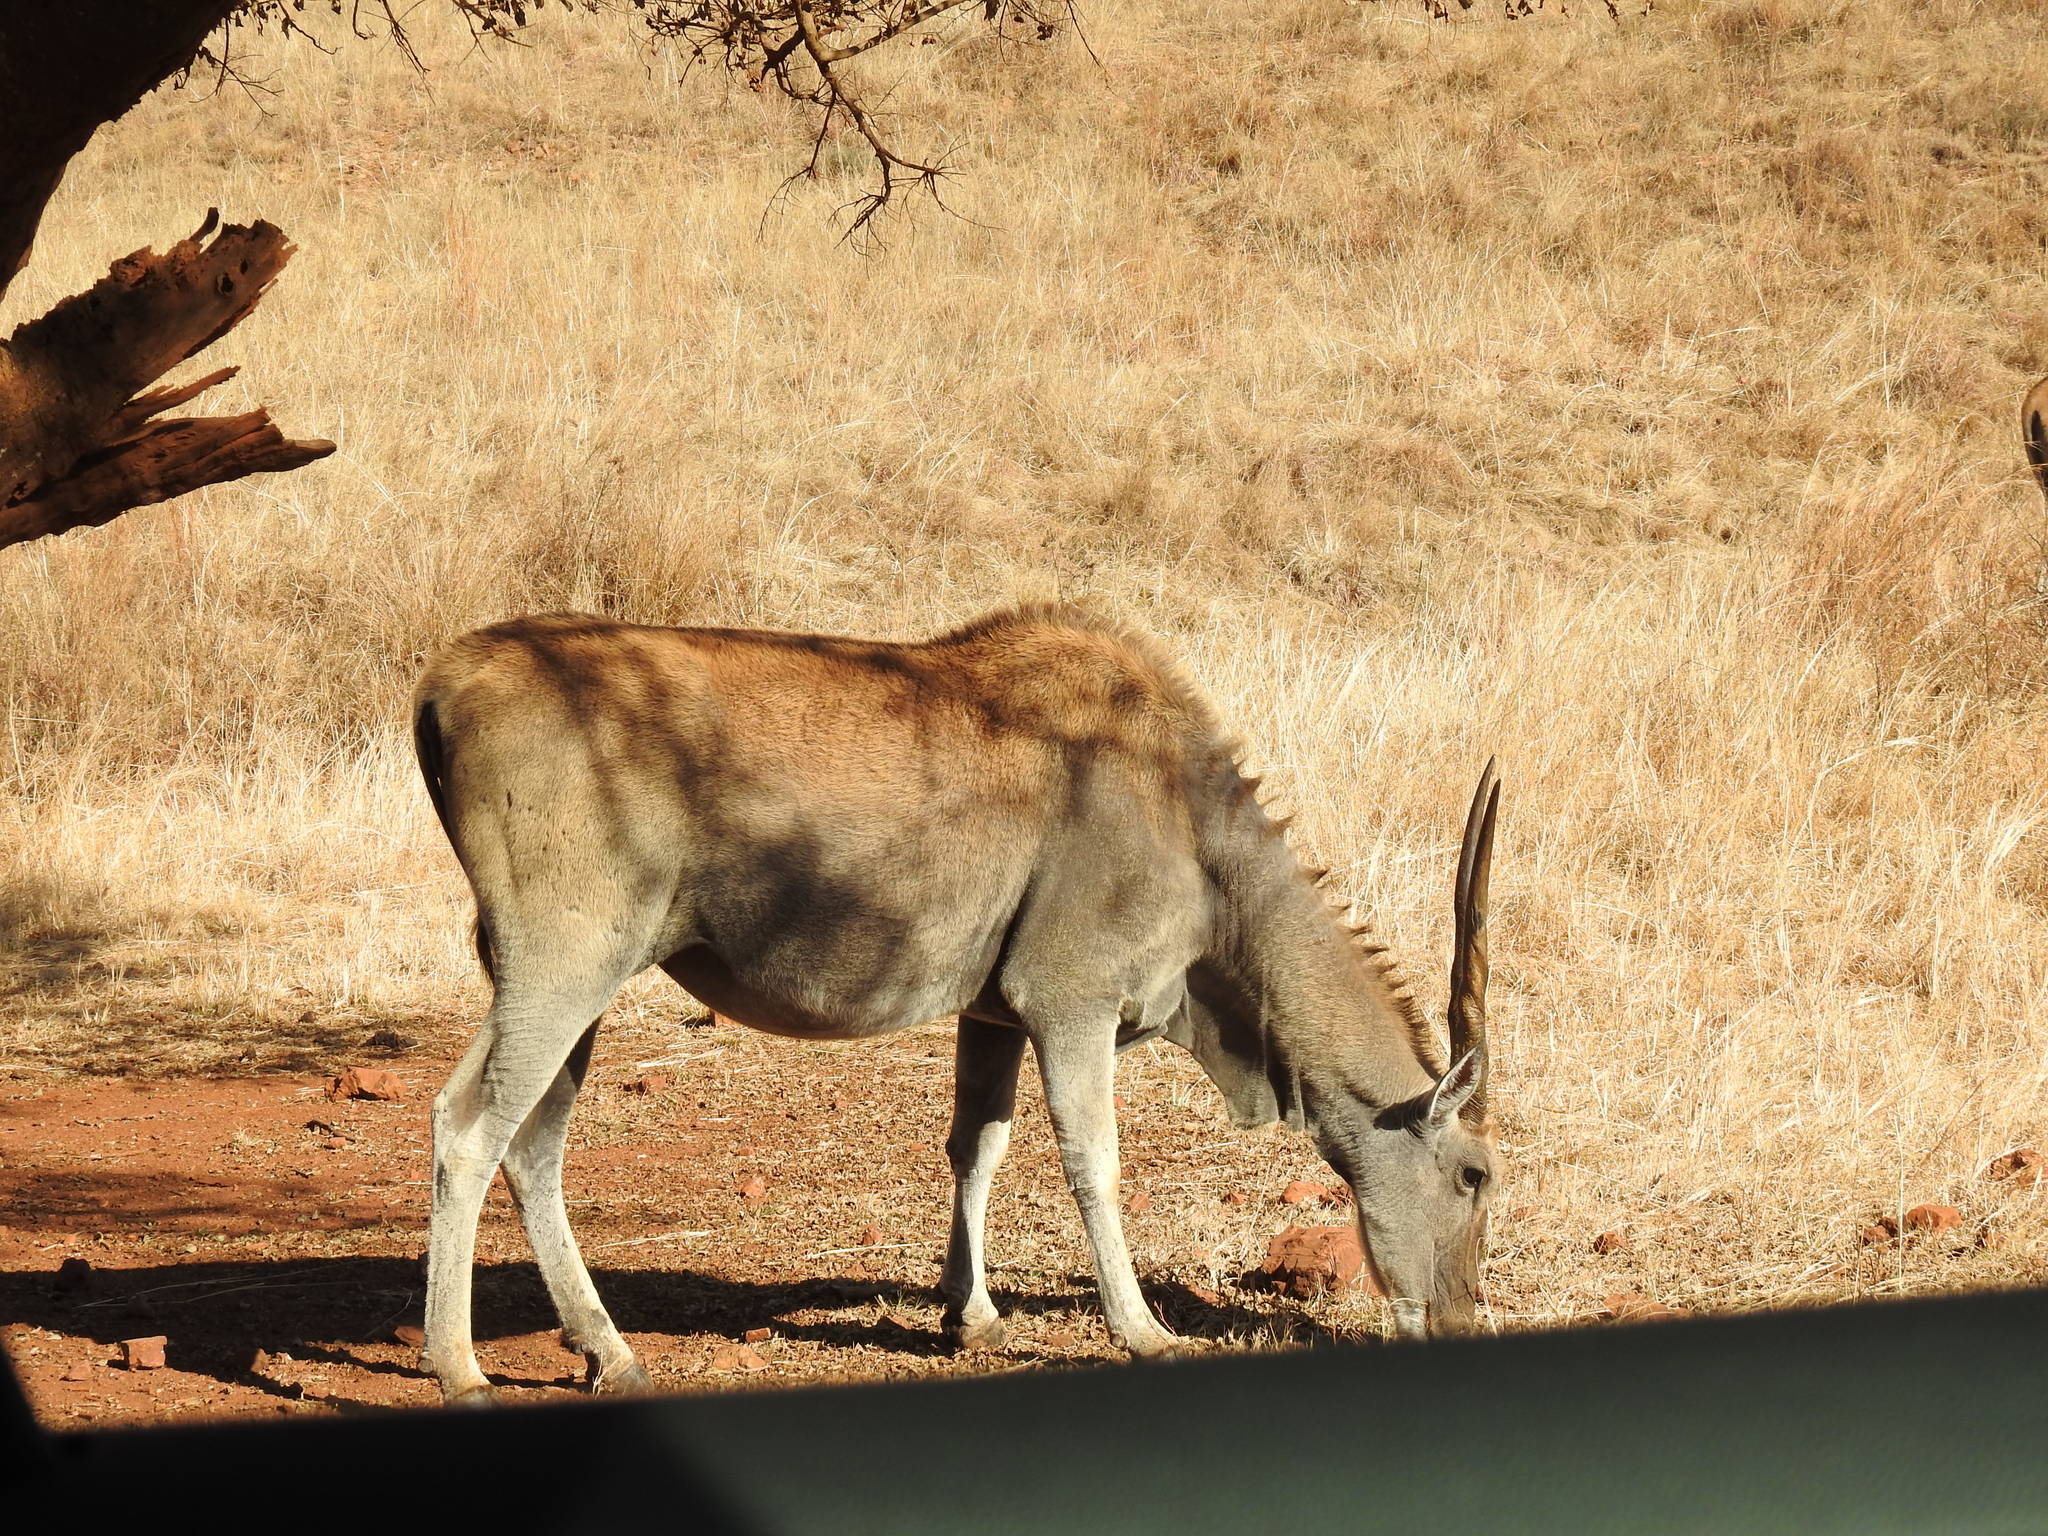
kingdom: Animalia
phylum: Chordata
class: Mammalia
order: Artiodactyla
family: Bovidae
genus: Taurotragus
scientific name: Taurotragus oryx
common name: Common eland
